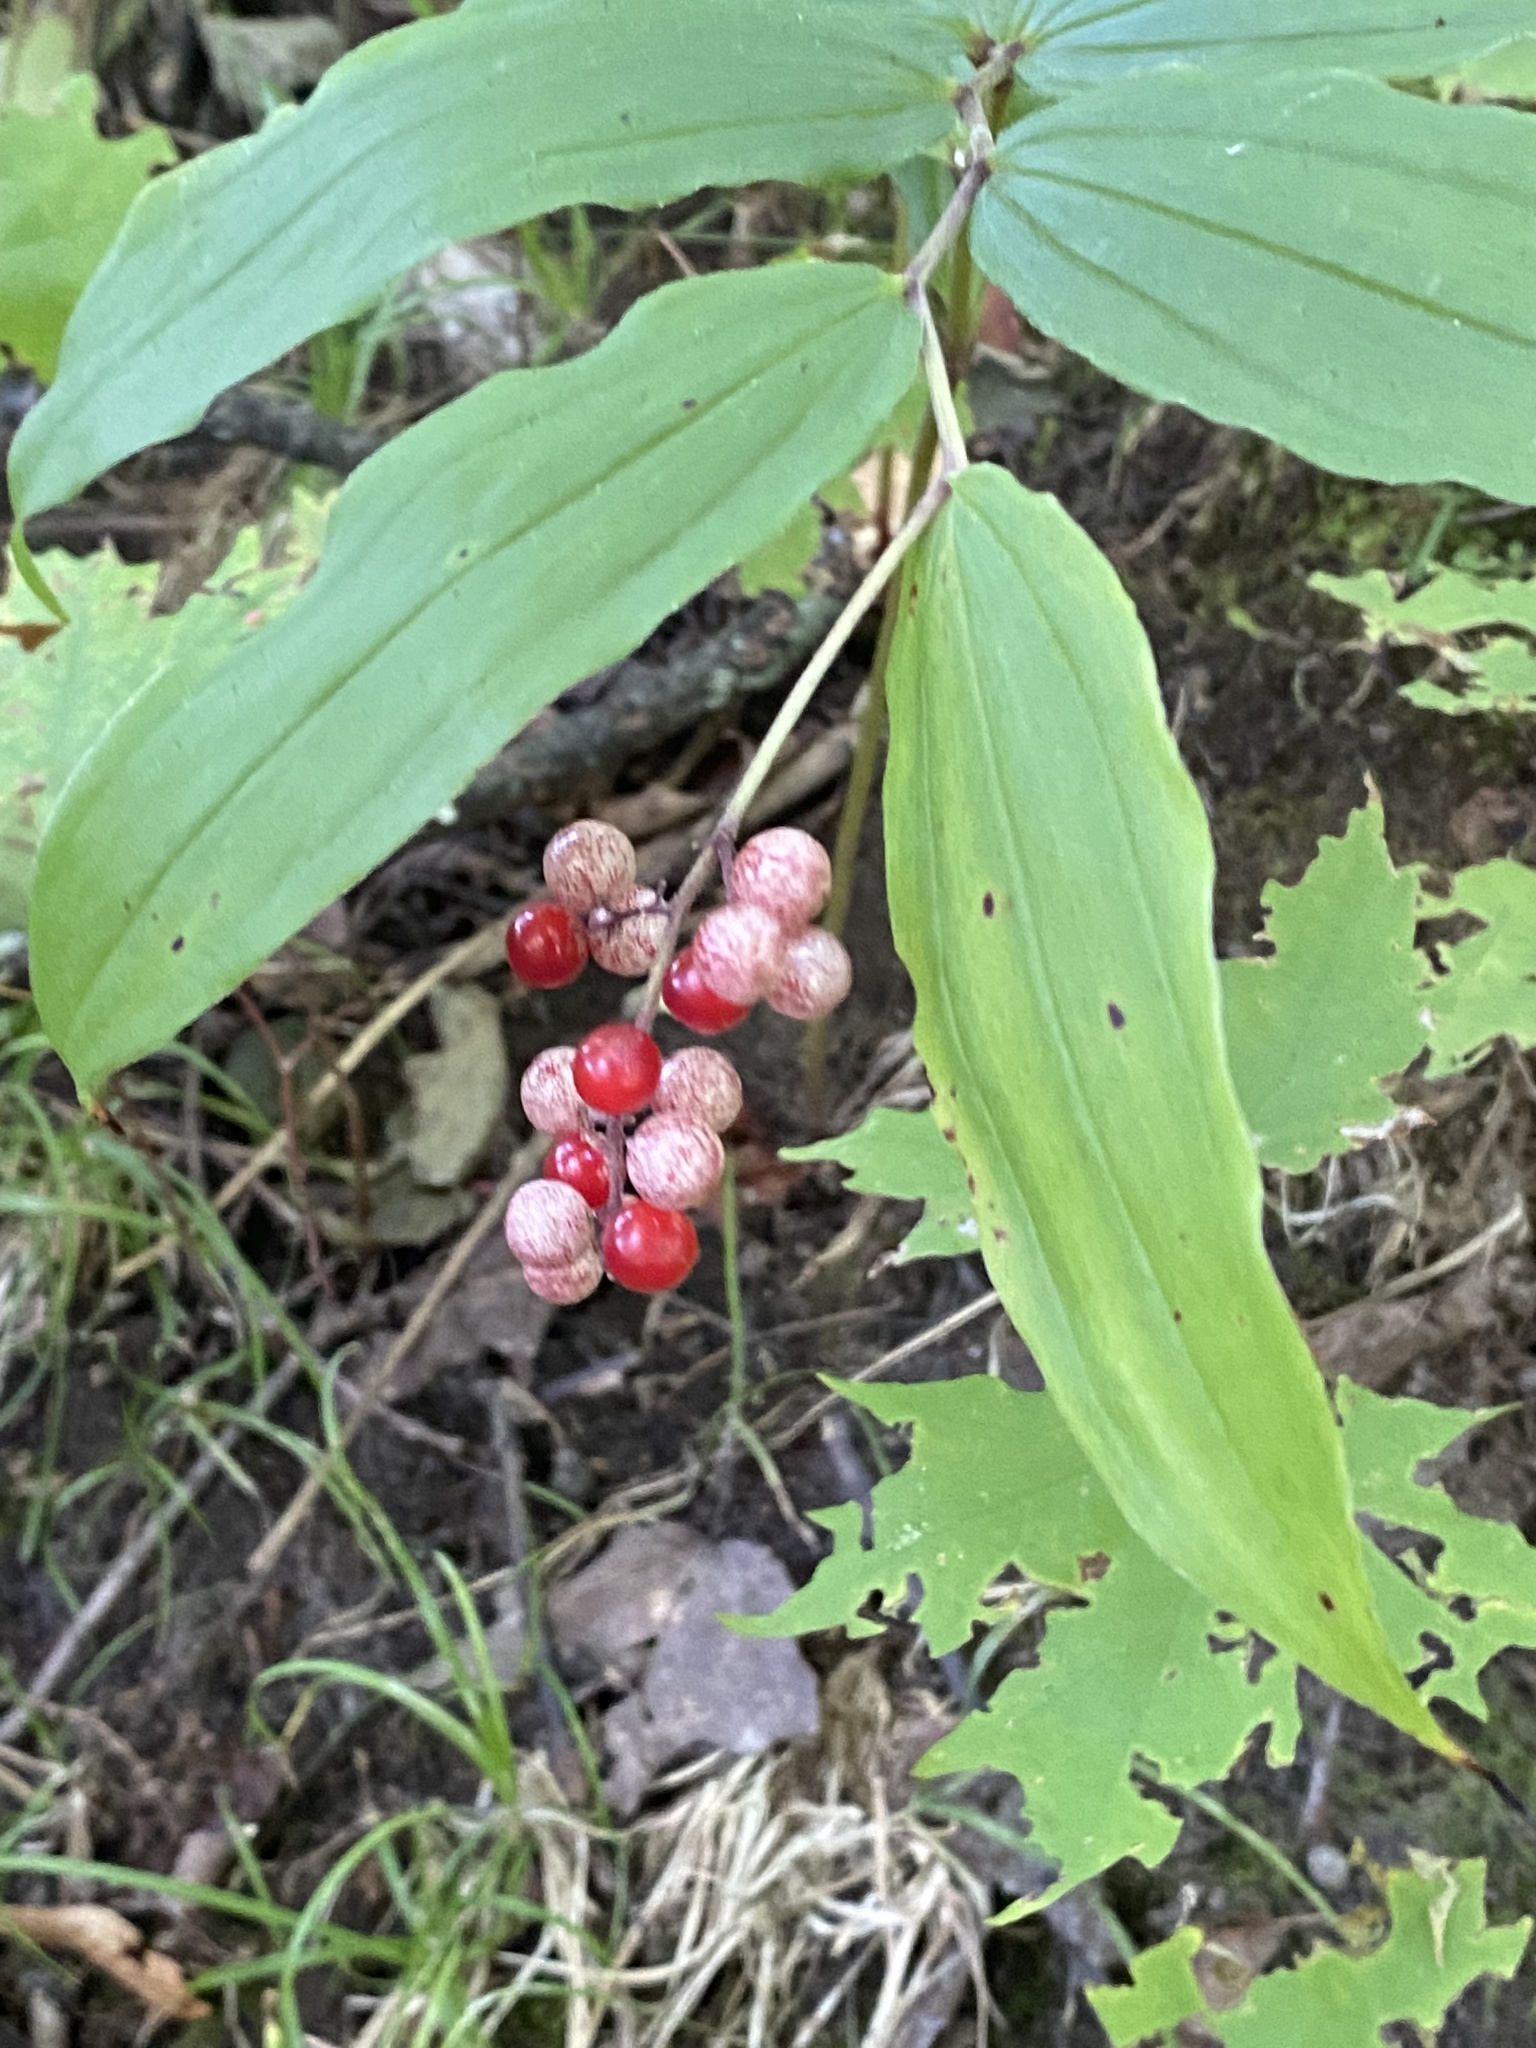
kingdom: Plantae
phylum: Tracheophyta
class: Liliopsida
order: Asparagales
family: Asparagaceae
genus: Maianthemum
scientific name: Maianthemum racemosum
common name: False spikenard
